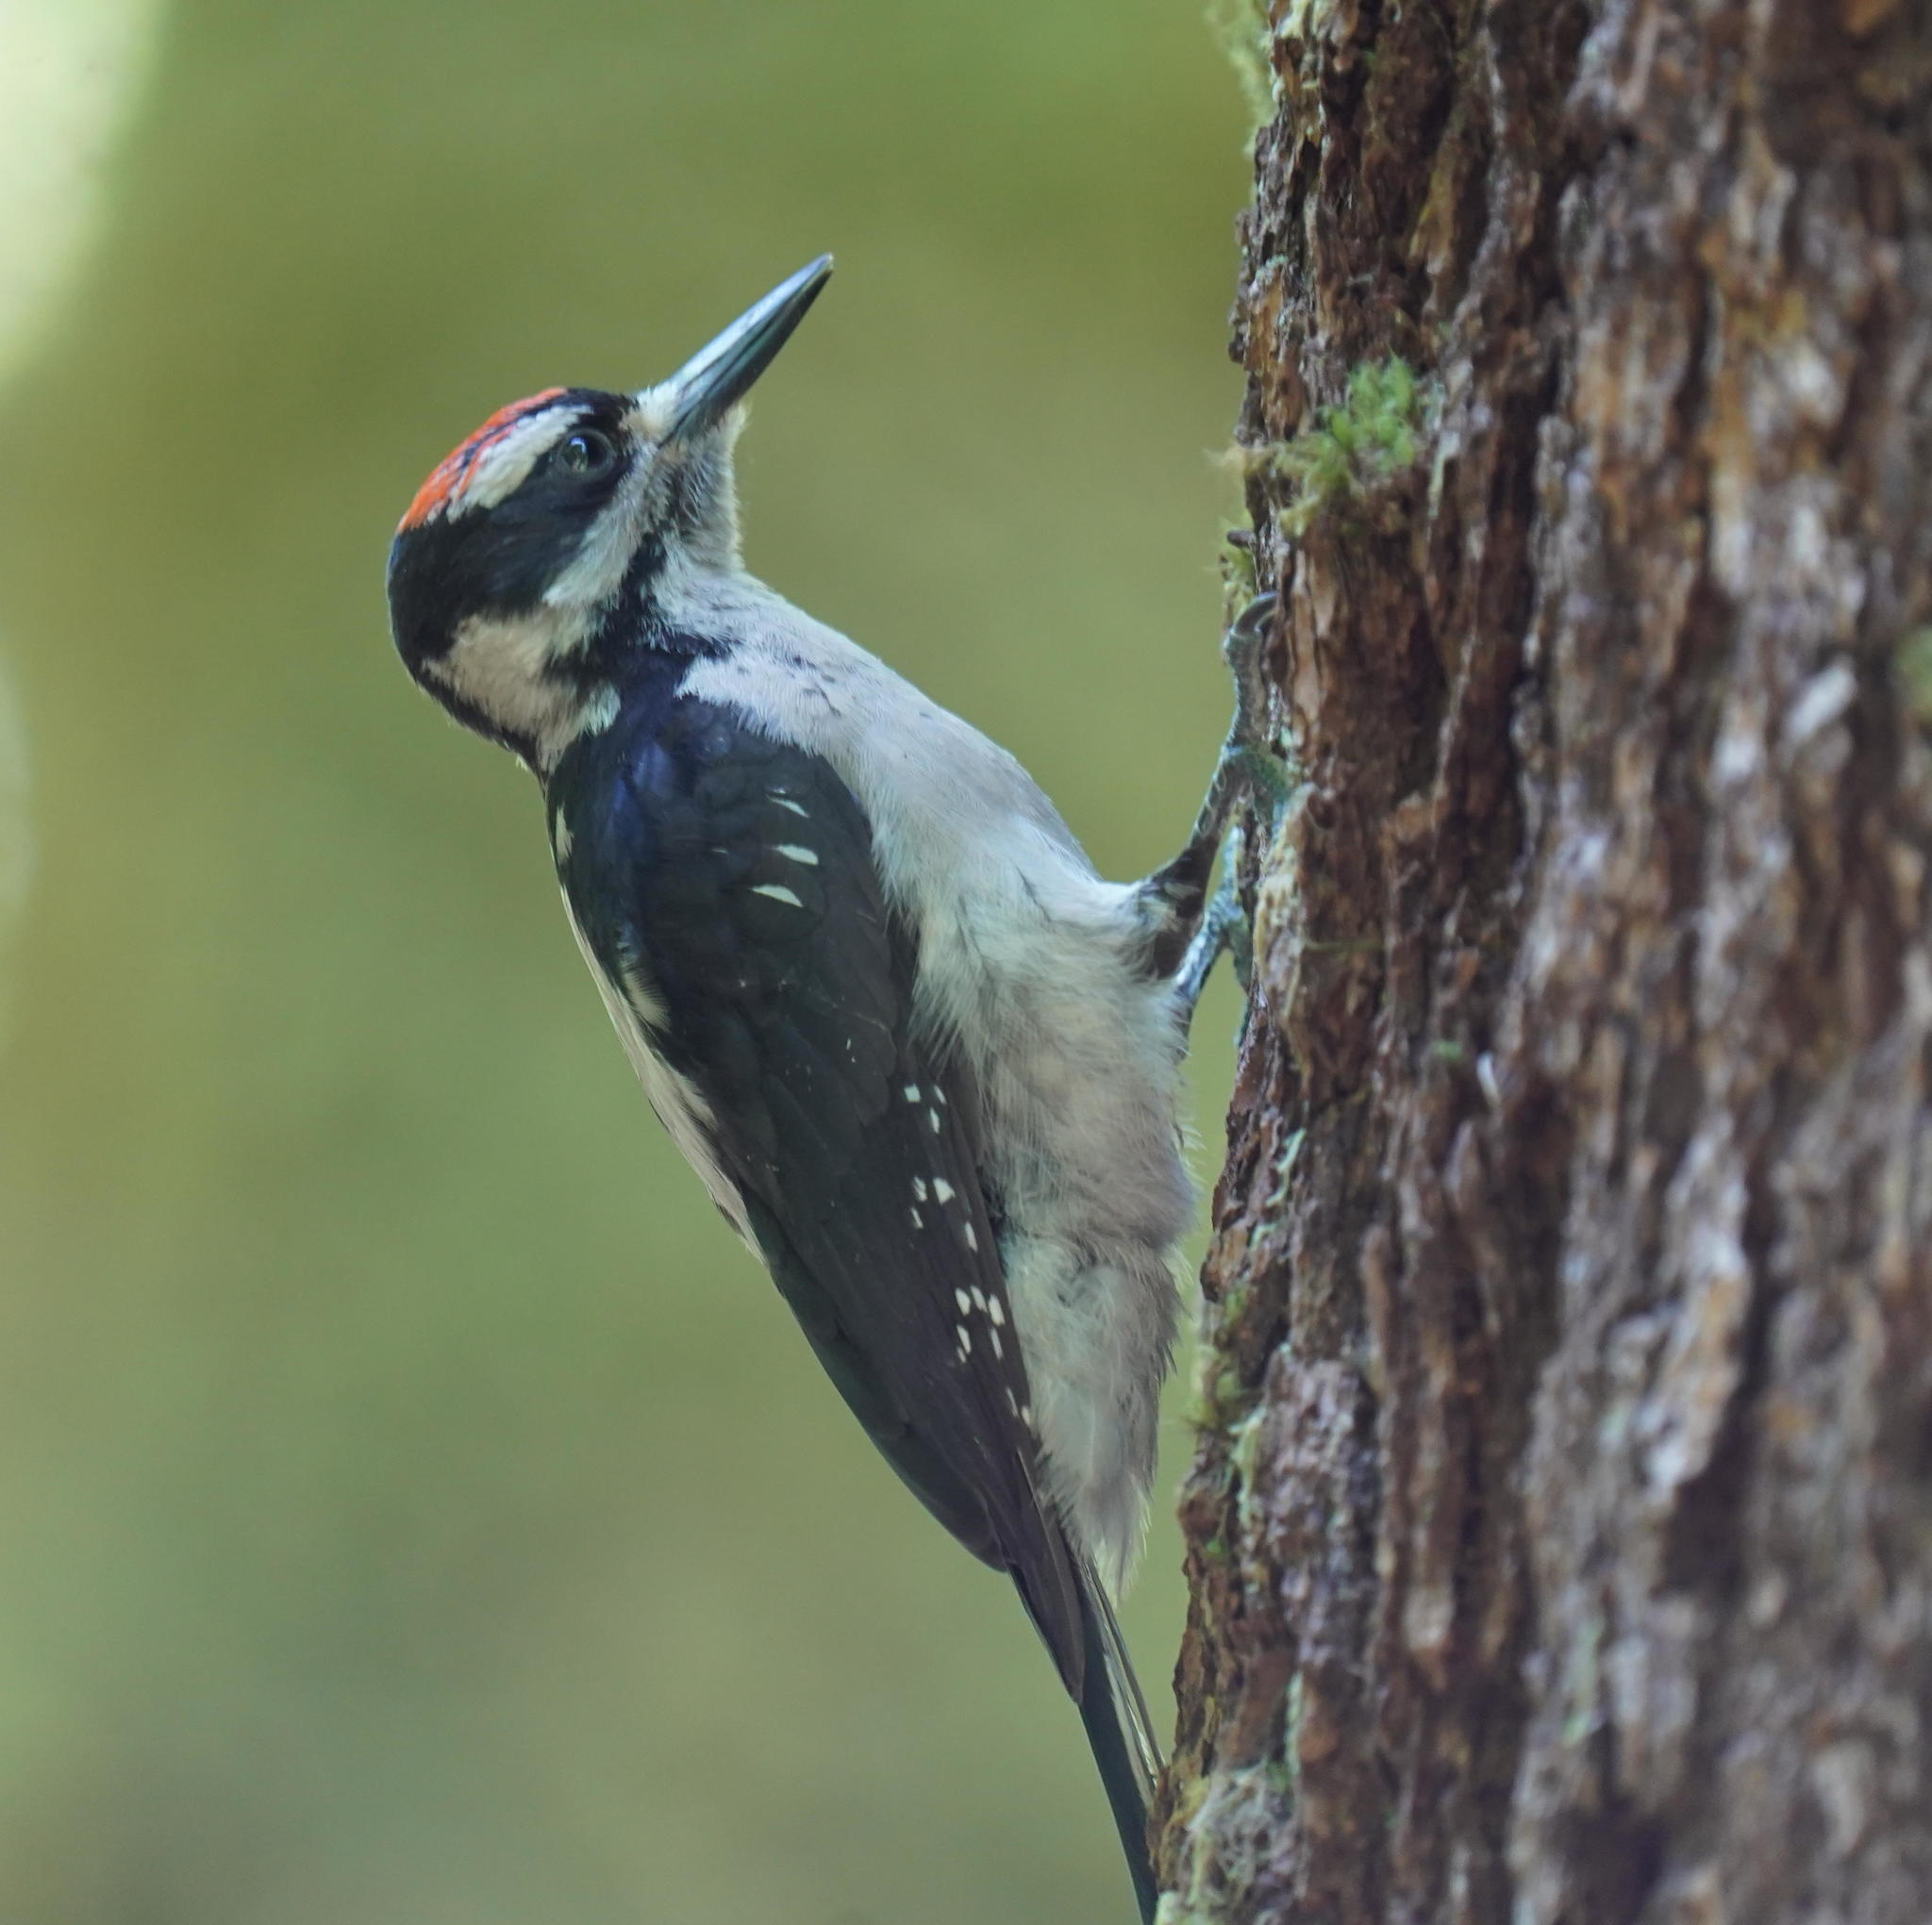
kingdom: Animalia
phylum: Chordata
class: Aves
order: Piciformes
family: Picidae
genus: Leuconotopicus
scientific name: Leuconotopicus villosus
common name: Hairy woodpecker
